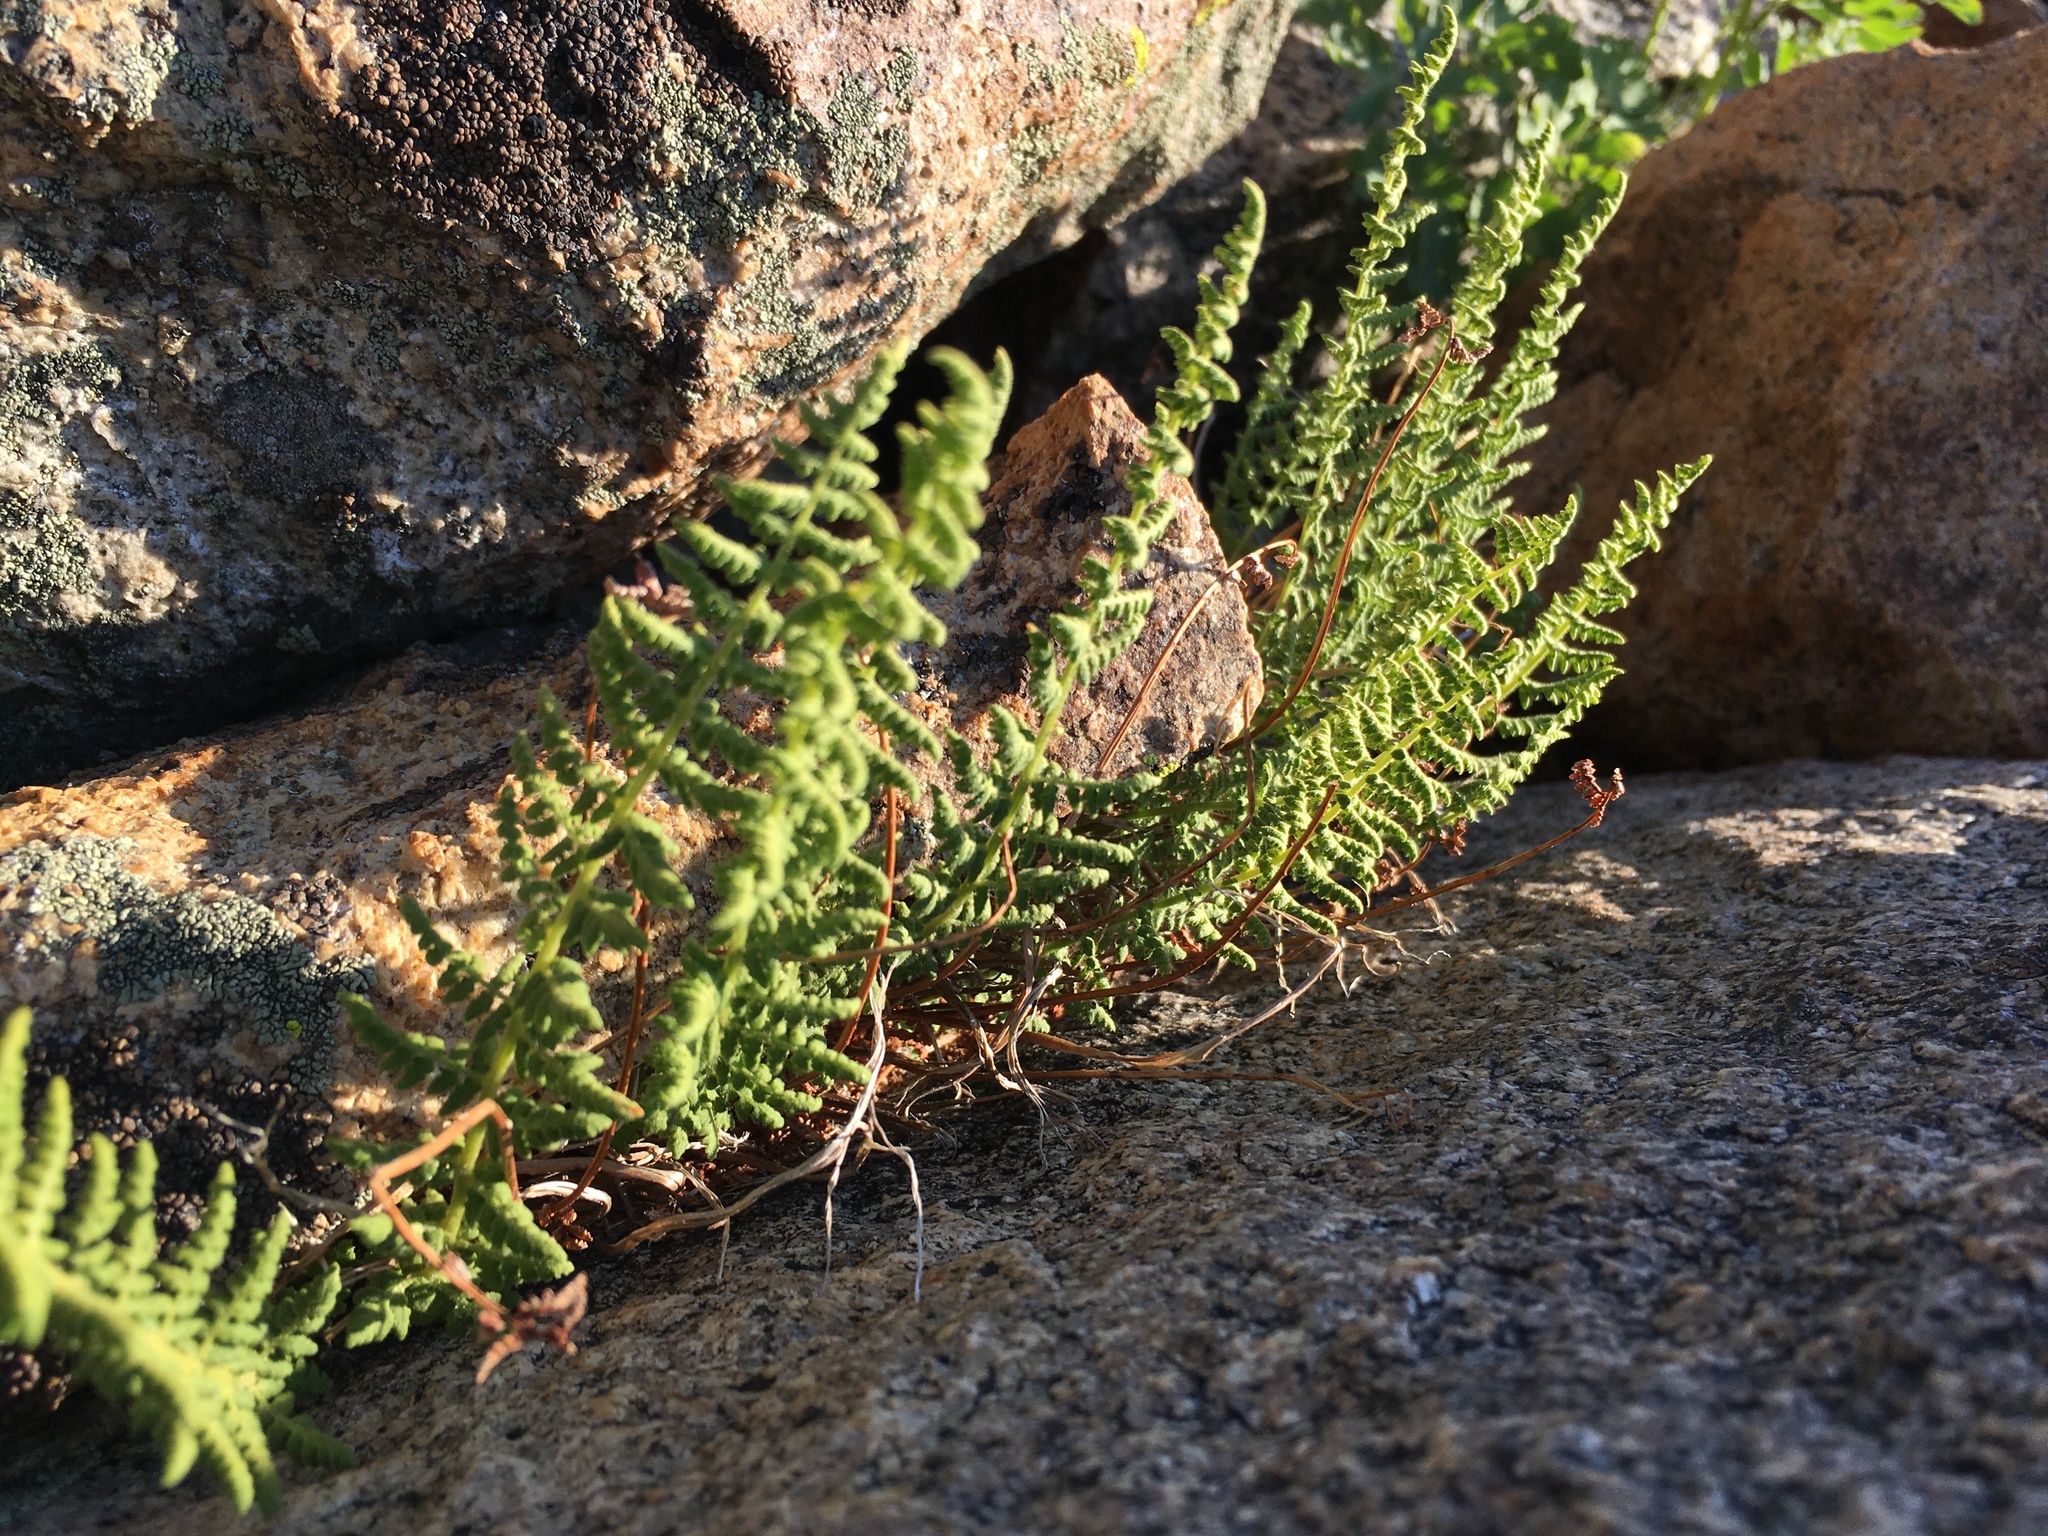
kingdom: Plantae
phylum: Tracheophyta
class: Polypodiopsida
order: Polypodiales
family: Woodsiaceae
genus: Physematium
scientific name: Physematium scopulinum
